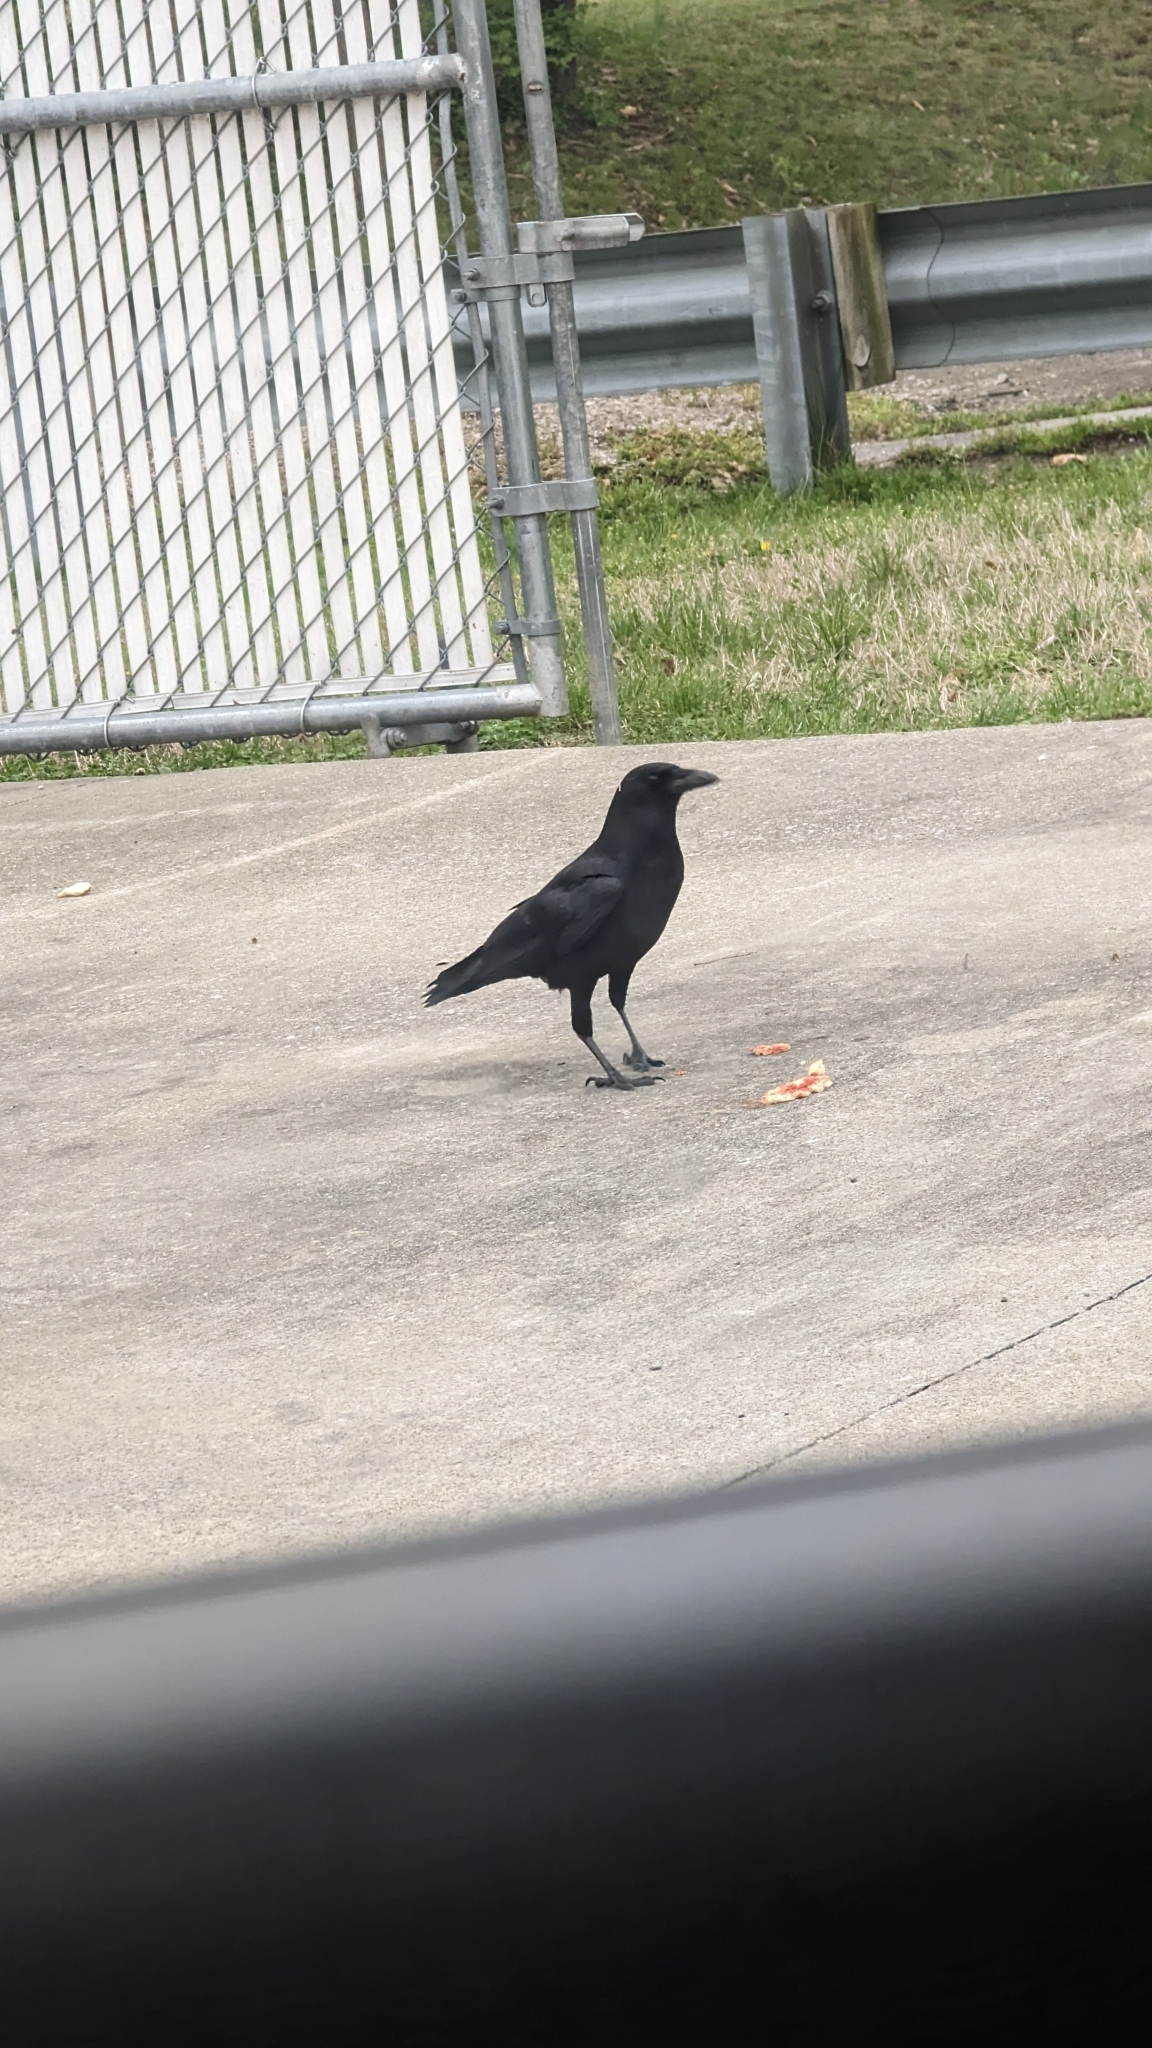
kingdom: Animalia
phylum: Chordata
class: Aves
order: Passeriformes
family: Corvidae
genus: Corvus
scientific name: Corvus brachyrhynchos
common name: American crow
